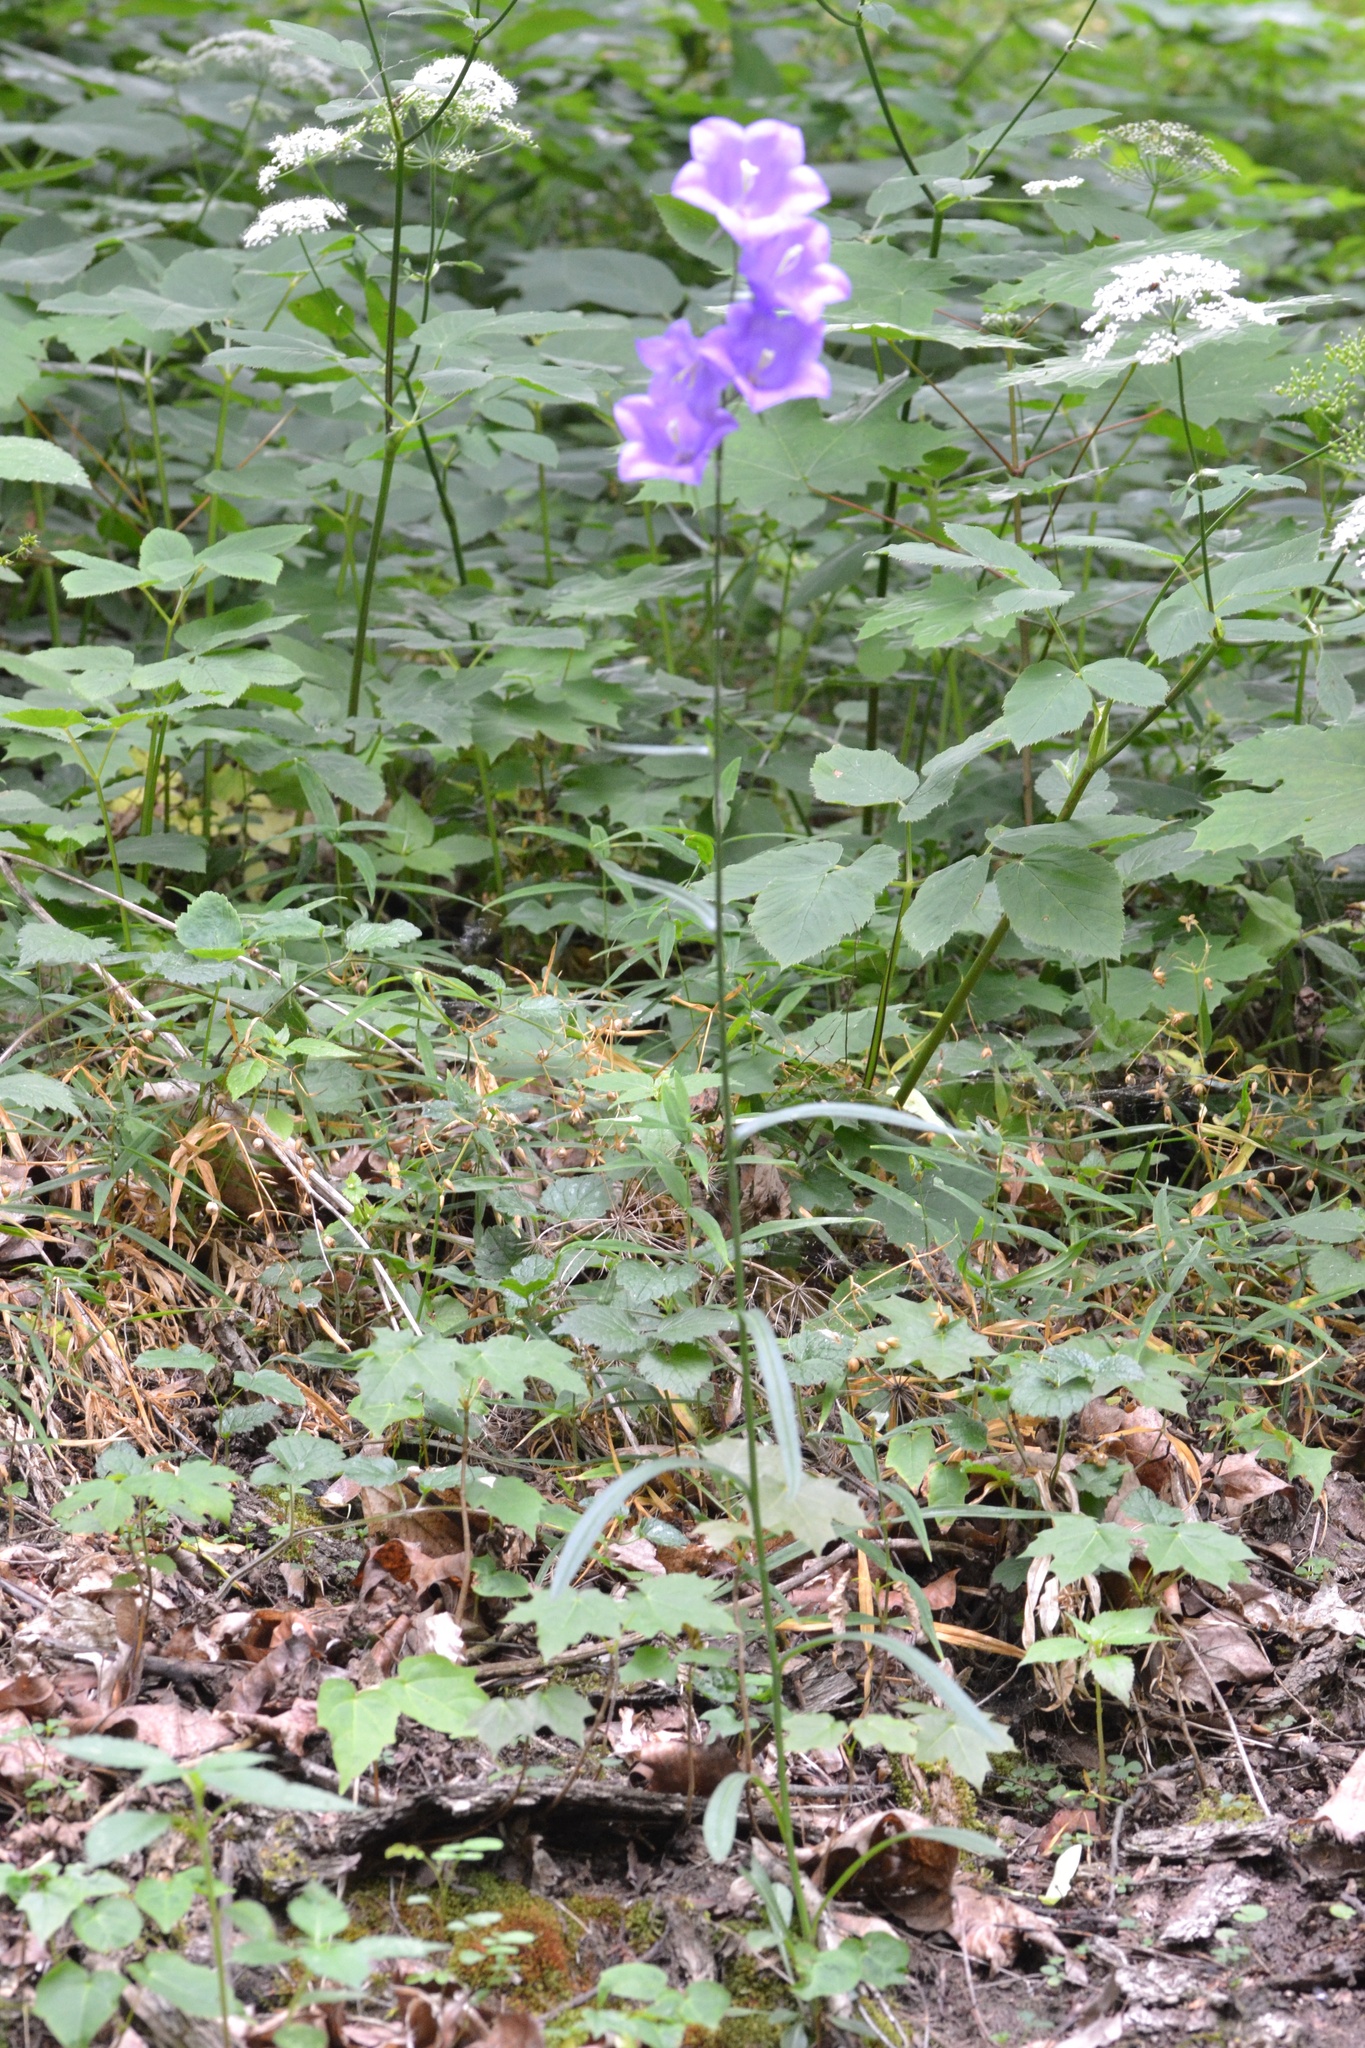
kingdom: Plantae
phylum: Tracheophyta
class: Magnoliopsida
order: Asterales
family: Campanulaceae
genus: Campanula
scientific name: Campanula persicifolia
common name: Peach-leaved bellflower
